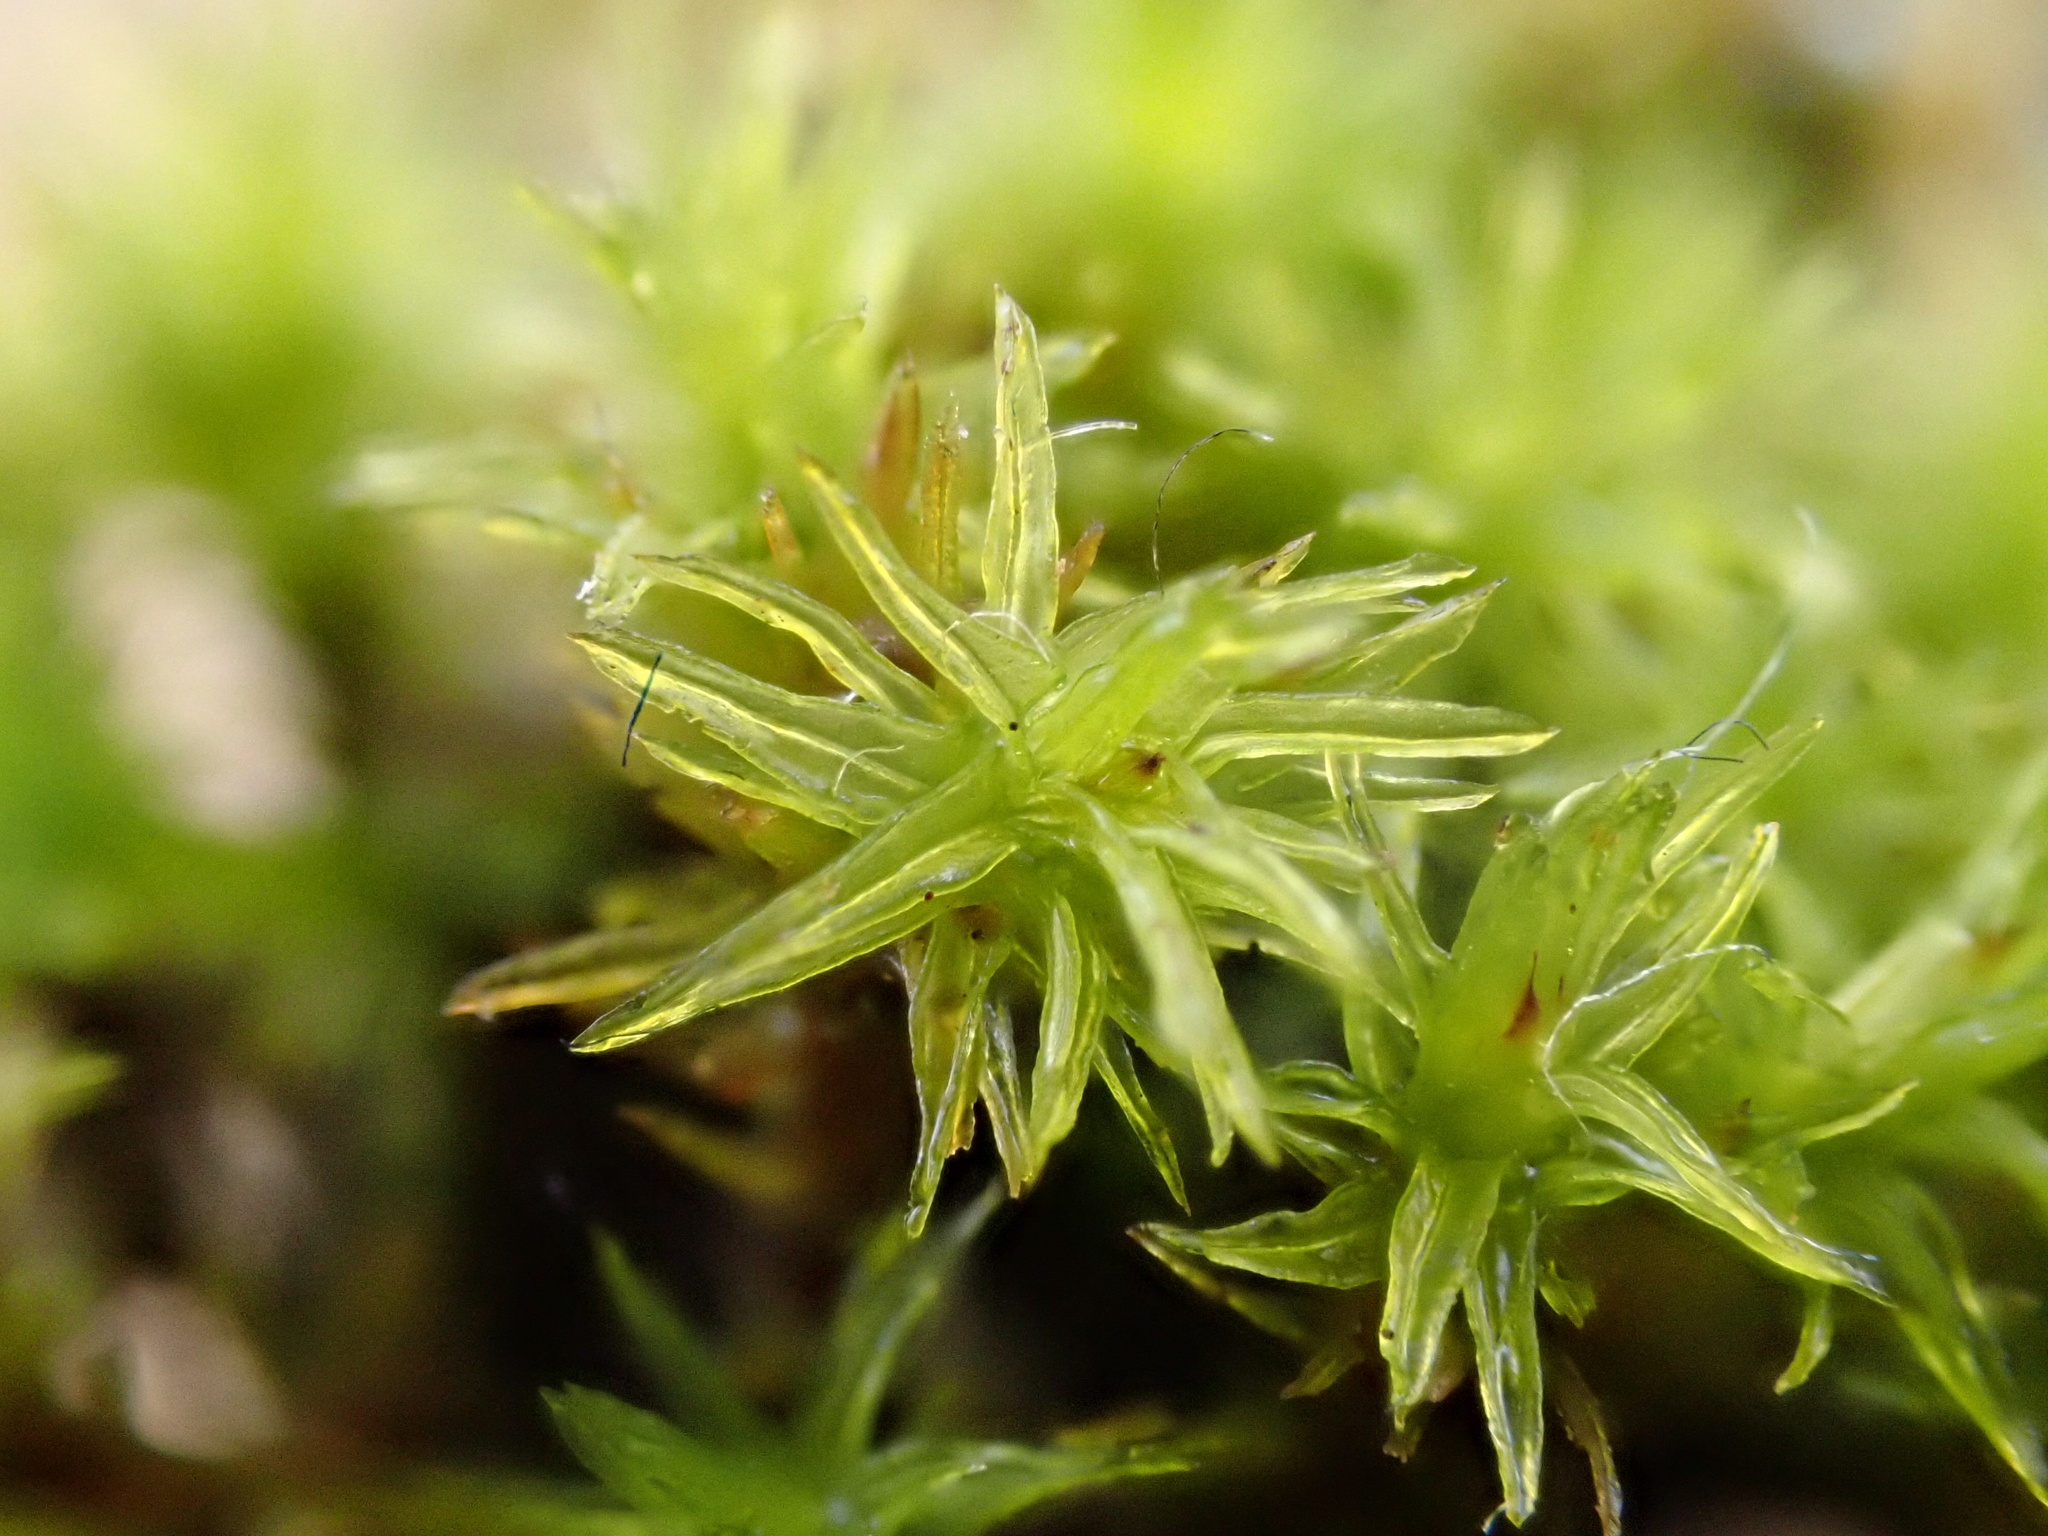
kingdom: Plantae
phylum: Bryophyta
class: Bryopsida
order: Orthotrichales
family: Orthotrichaceae
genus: Lewinskya
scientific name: Lewinskya affinis
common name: Wood bristle-moss
